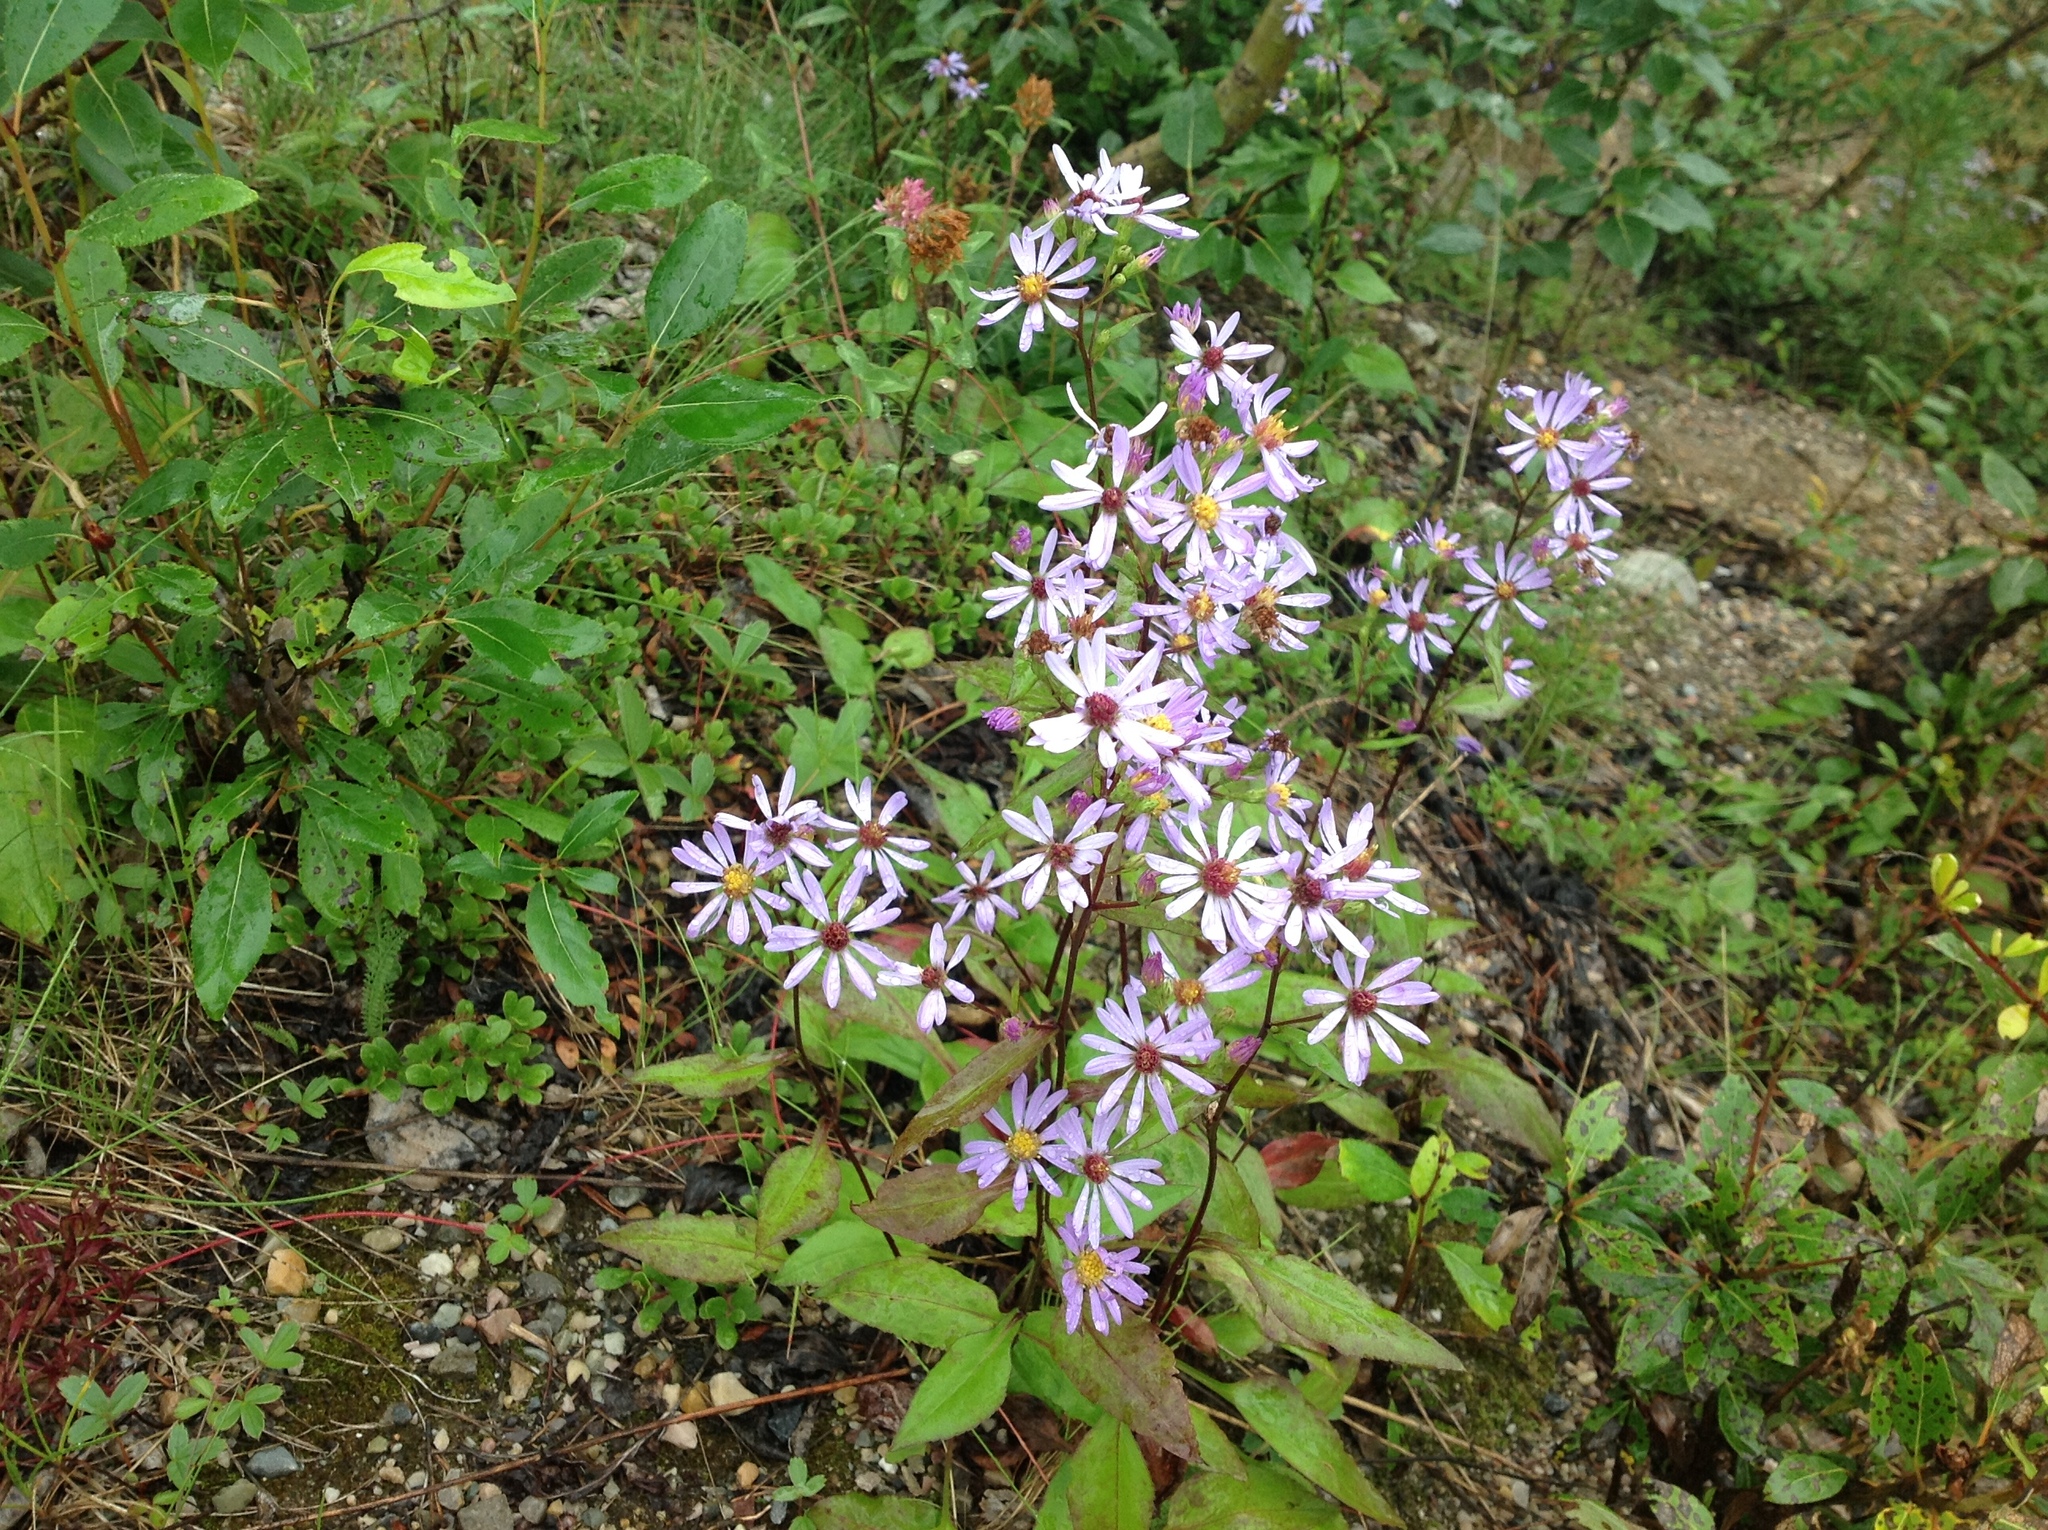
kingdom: Plantae
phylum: Tracheophyta
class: Magnoliopsida
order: Asterales
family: Asteraceae
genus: Symphyotrichum
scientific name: Symphyotrichum ciliolatum
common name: Fringed blue aster
